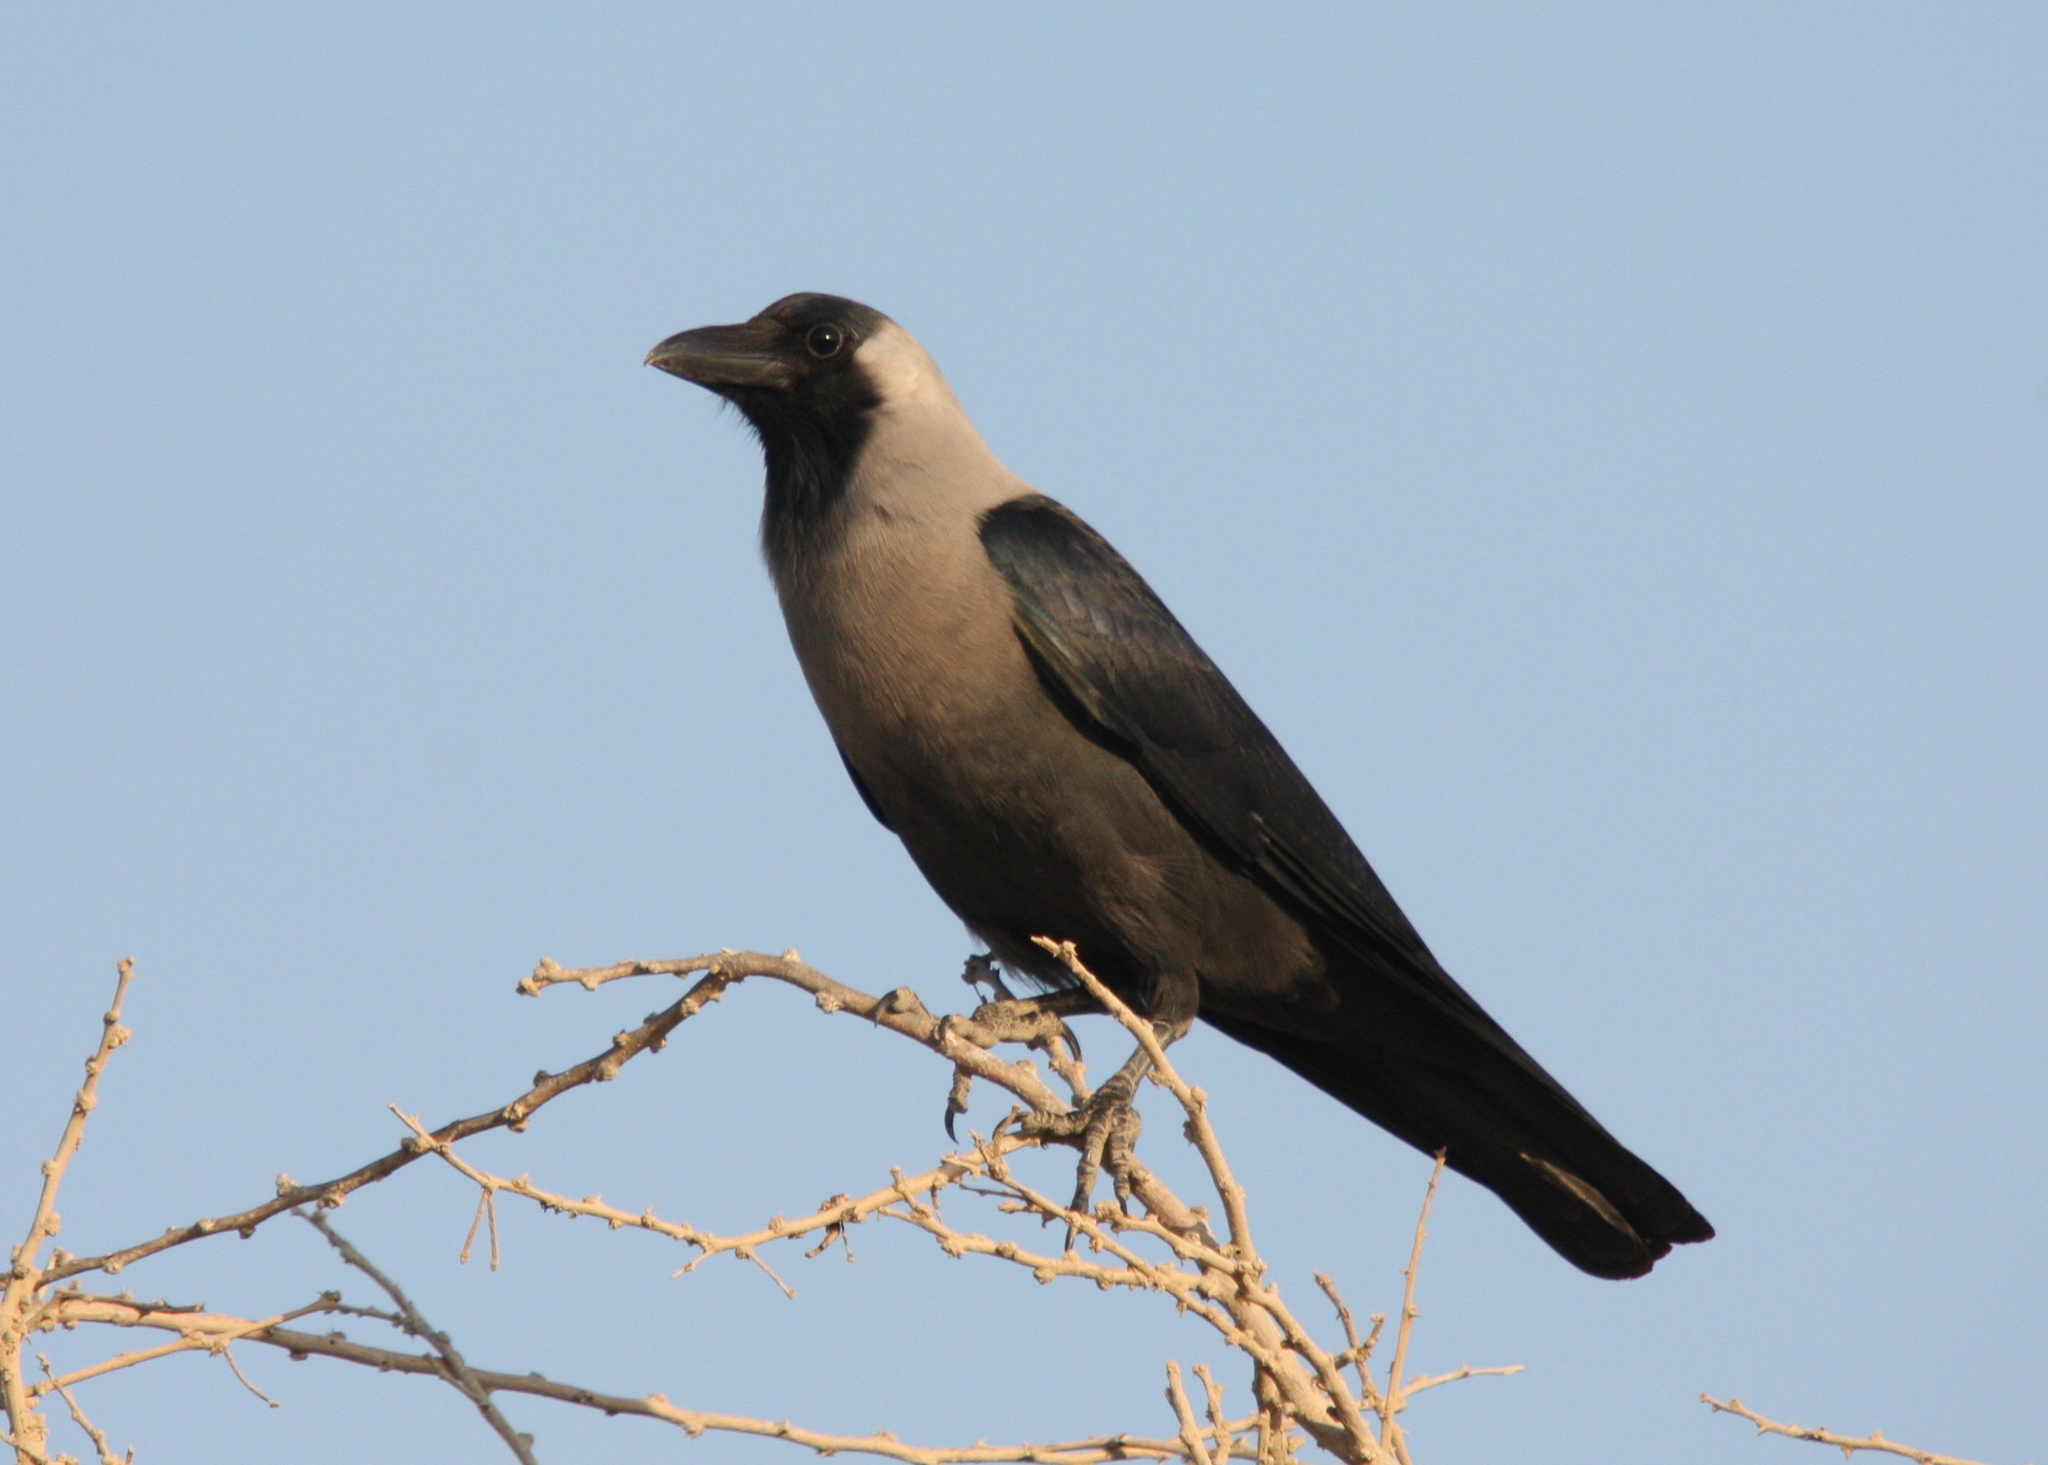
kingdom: Animalia
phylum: Chordata
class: Aves
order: Passeriformes
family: Corvidae
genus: Corvus
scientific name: Corvus splendens
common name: House crow
